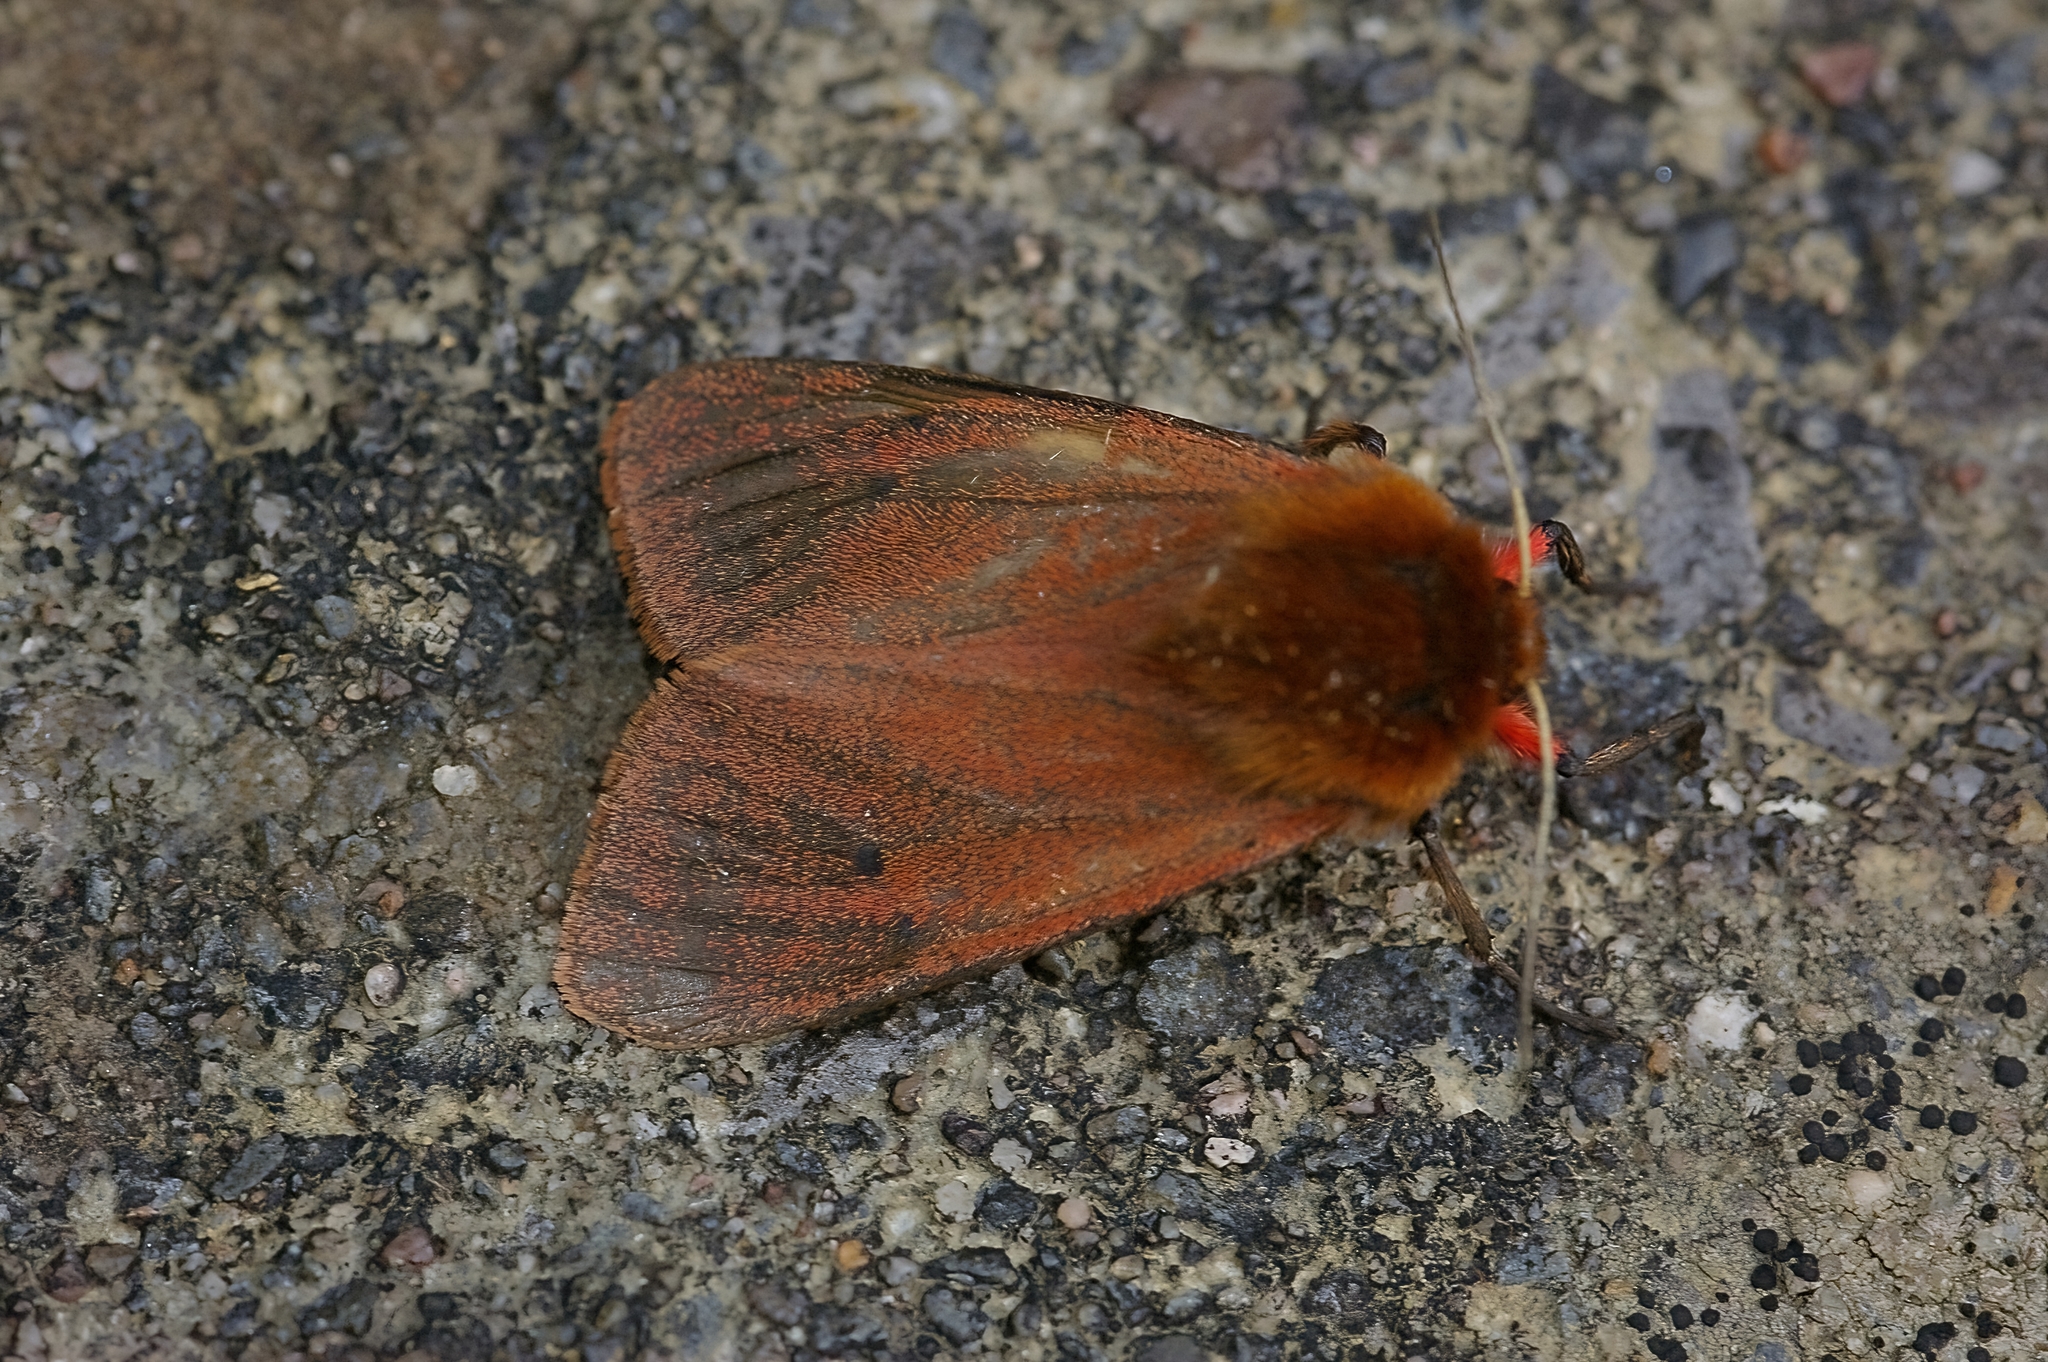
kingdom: Animalia
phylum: Arthropoda
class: Insecta
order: Lepidoptera
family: Erebidae
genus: Phragmatobia
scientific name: Phragmatobia fuliginosa
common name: Ruby tiger
